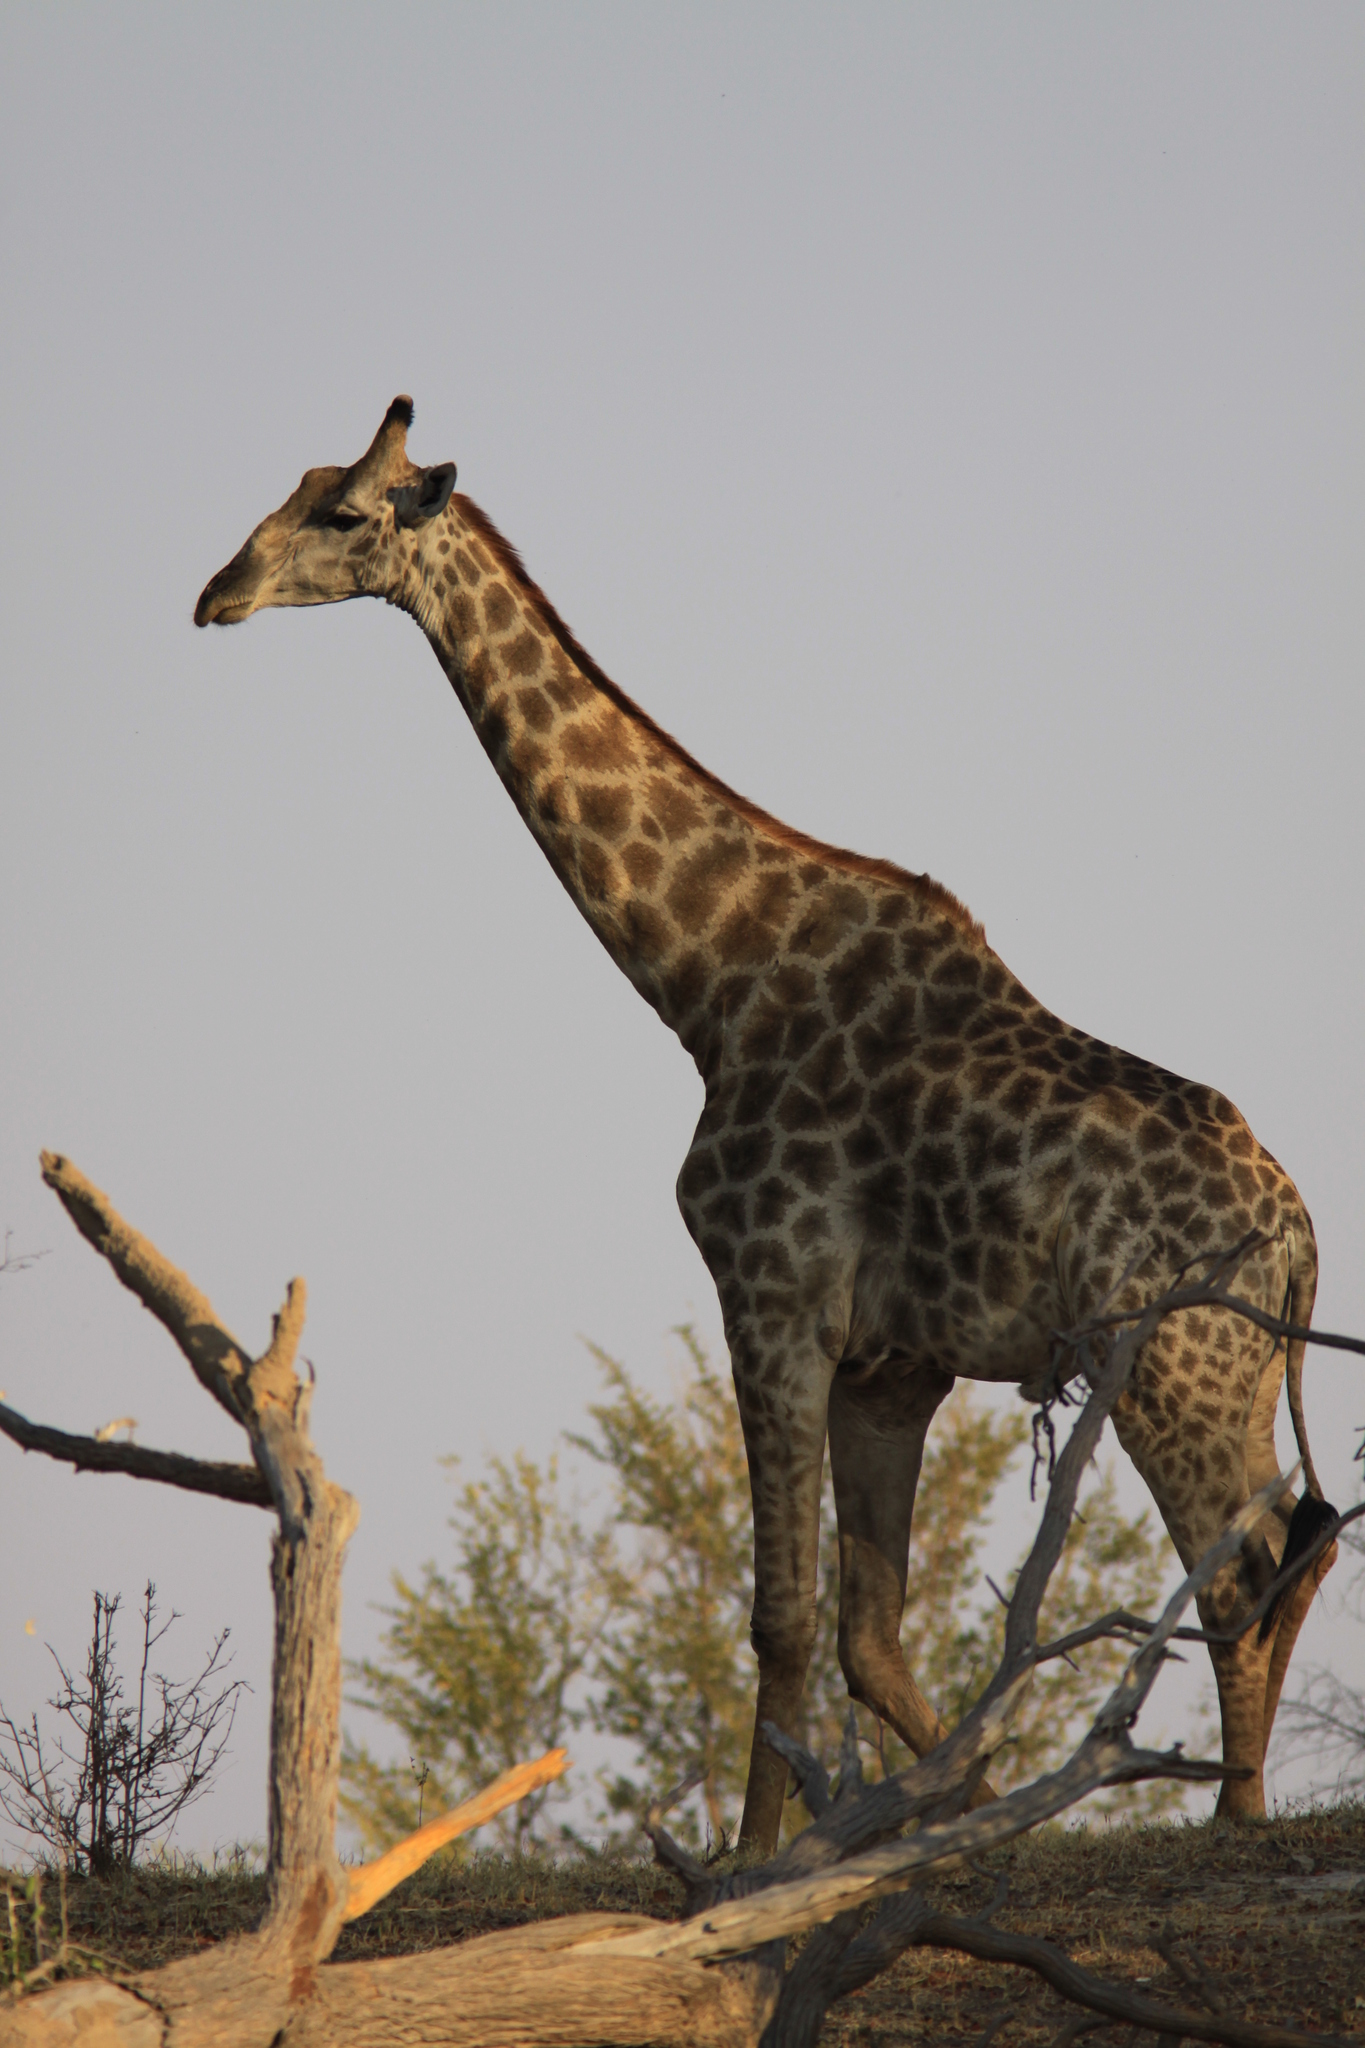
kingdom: Animalia
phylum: Chordata
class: Mammalia
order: Artiodactyla
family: Giraffidae
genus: Giraffa
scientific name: Giraffa giraffa
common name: Southern giraffe
